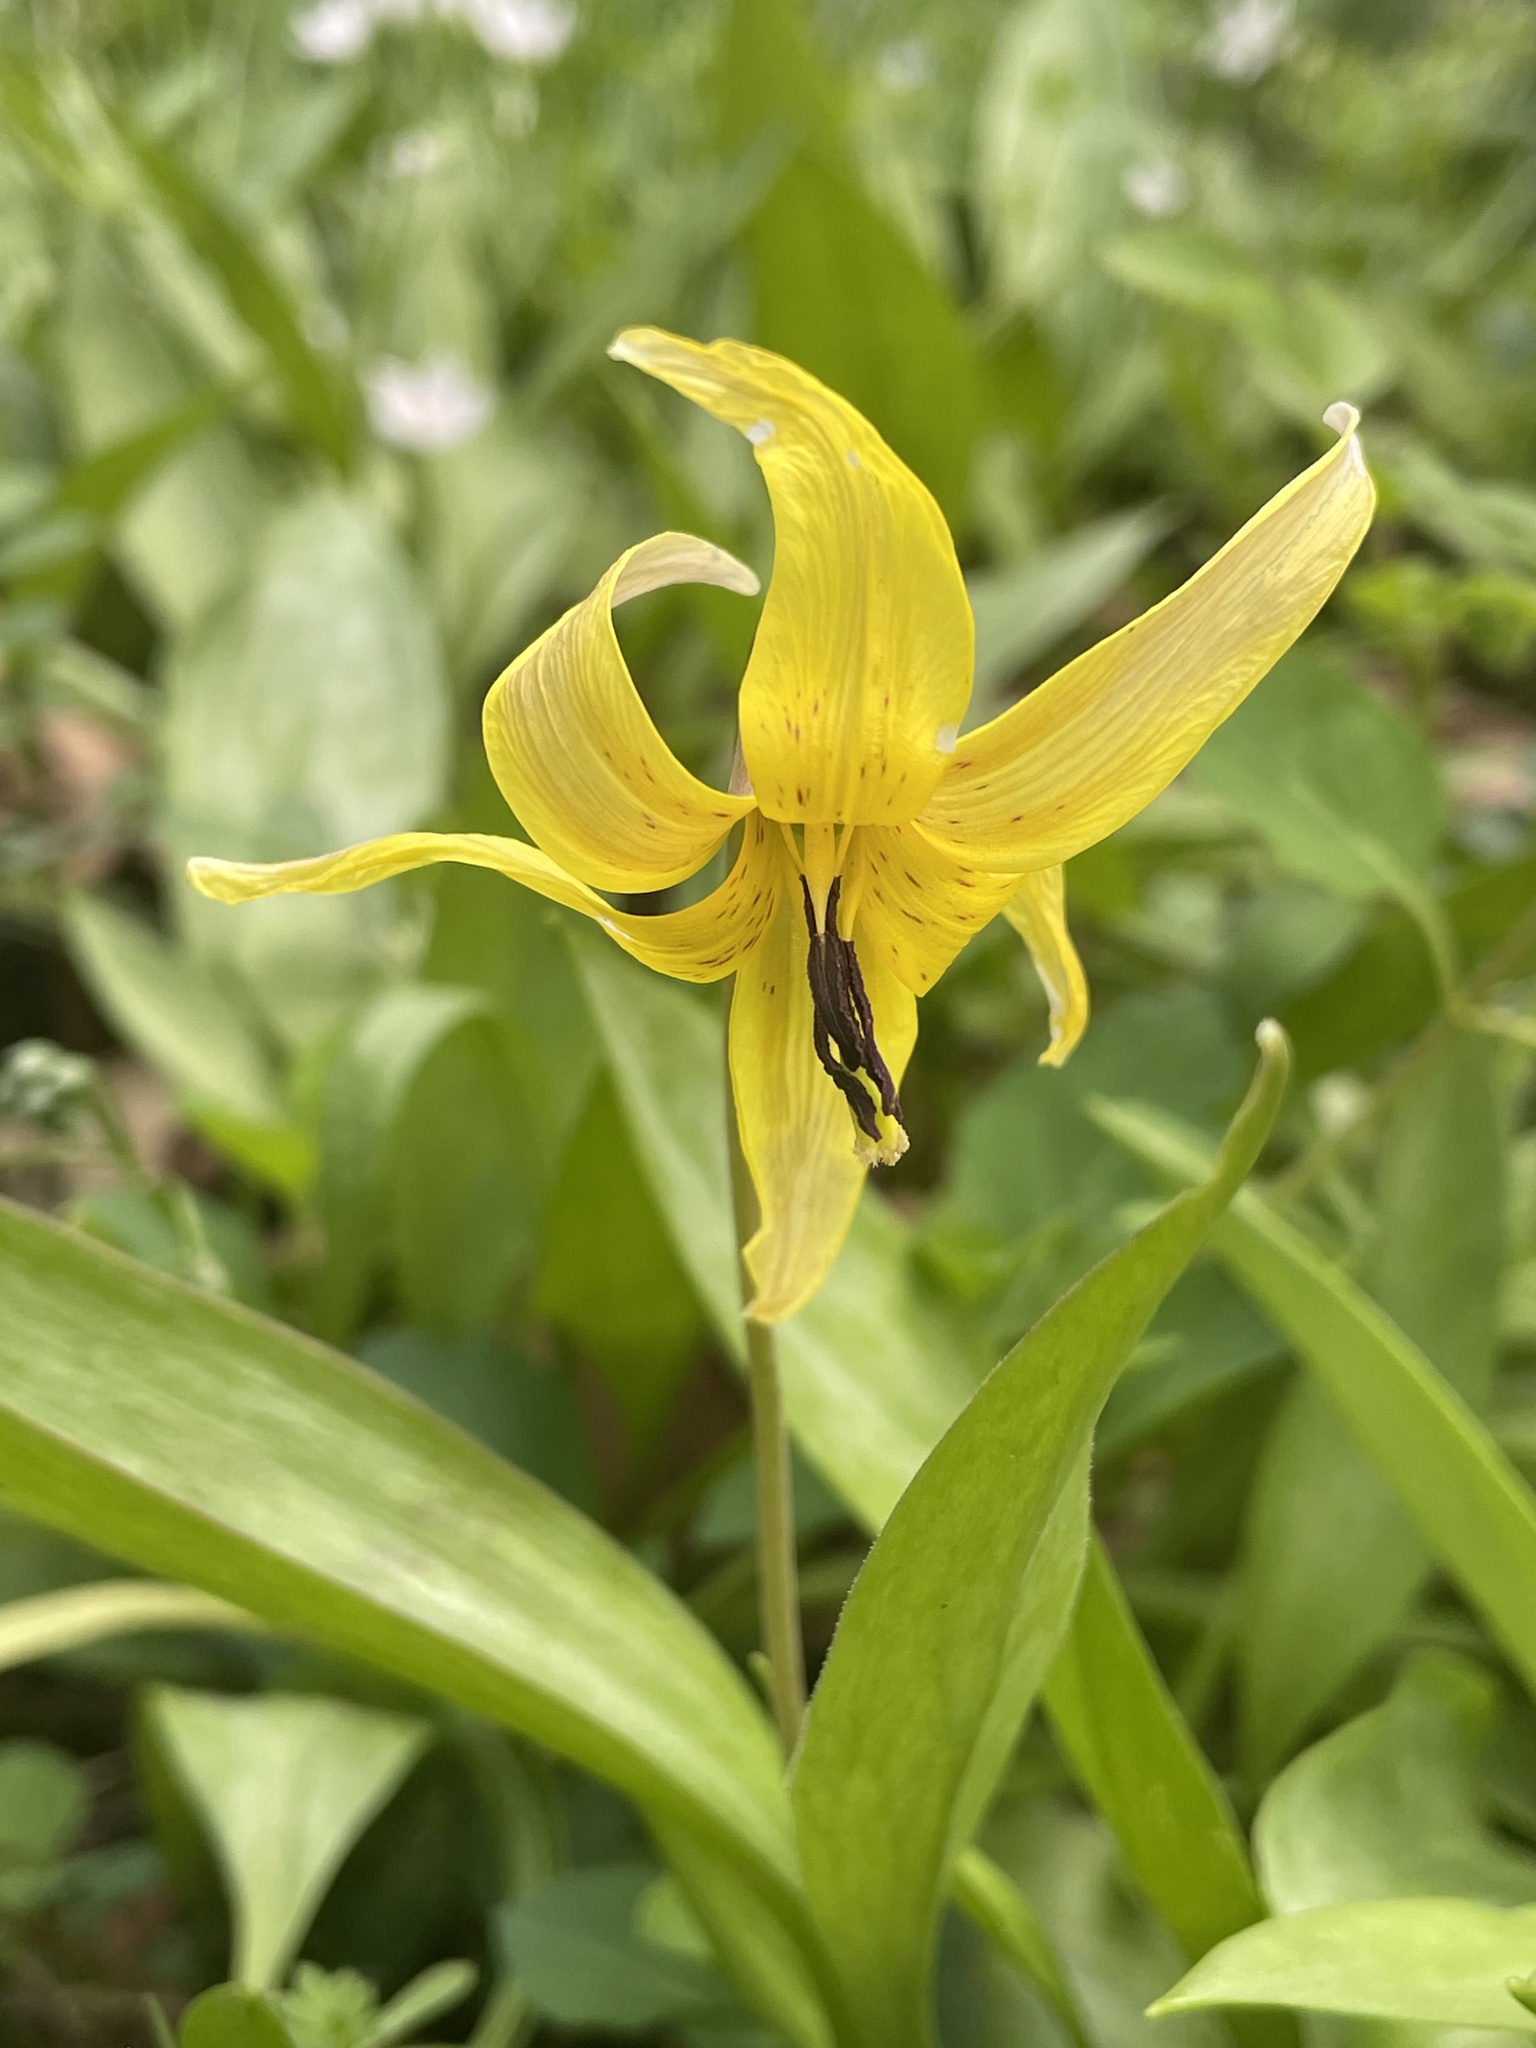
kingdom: Plantae
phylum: Tracheophyta
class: Liliopsida
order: Liliales
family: Liliaceae
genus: Erythronium
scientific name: Erythronium americanum
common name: Yellow adder's-tongue
